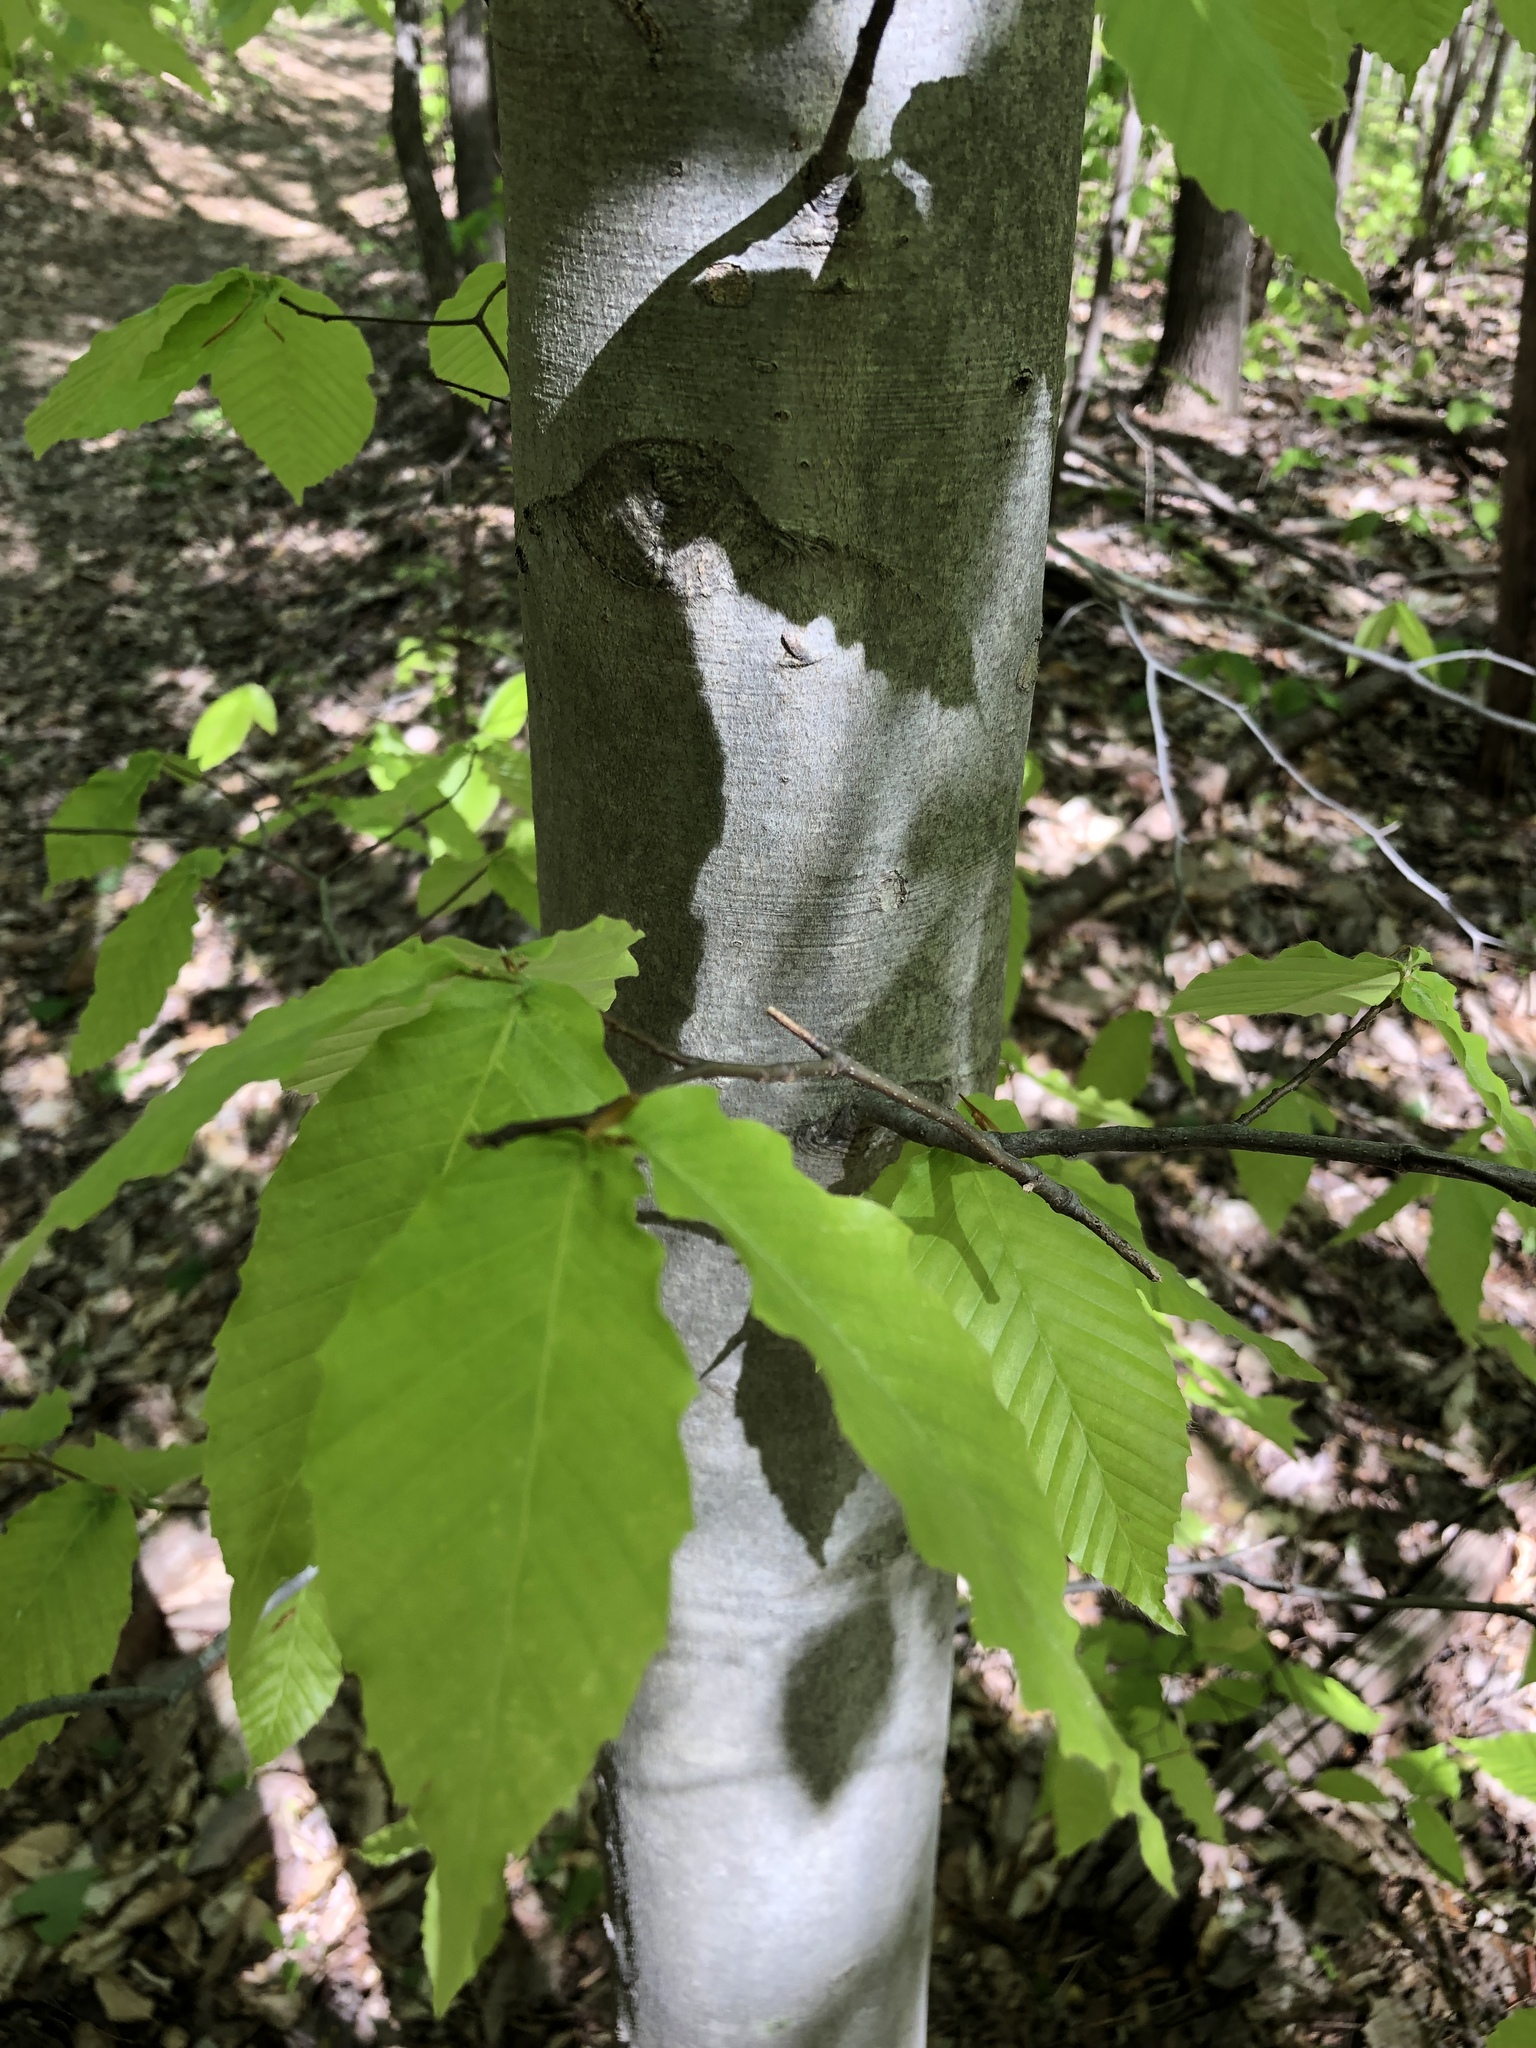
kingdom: Plantae
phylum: Tracheophyta
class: Magnoliopsida
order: Fagales
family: Fagaceae
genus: Fagus
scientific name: Fagus grandifolia
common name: American beech
